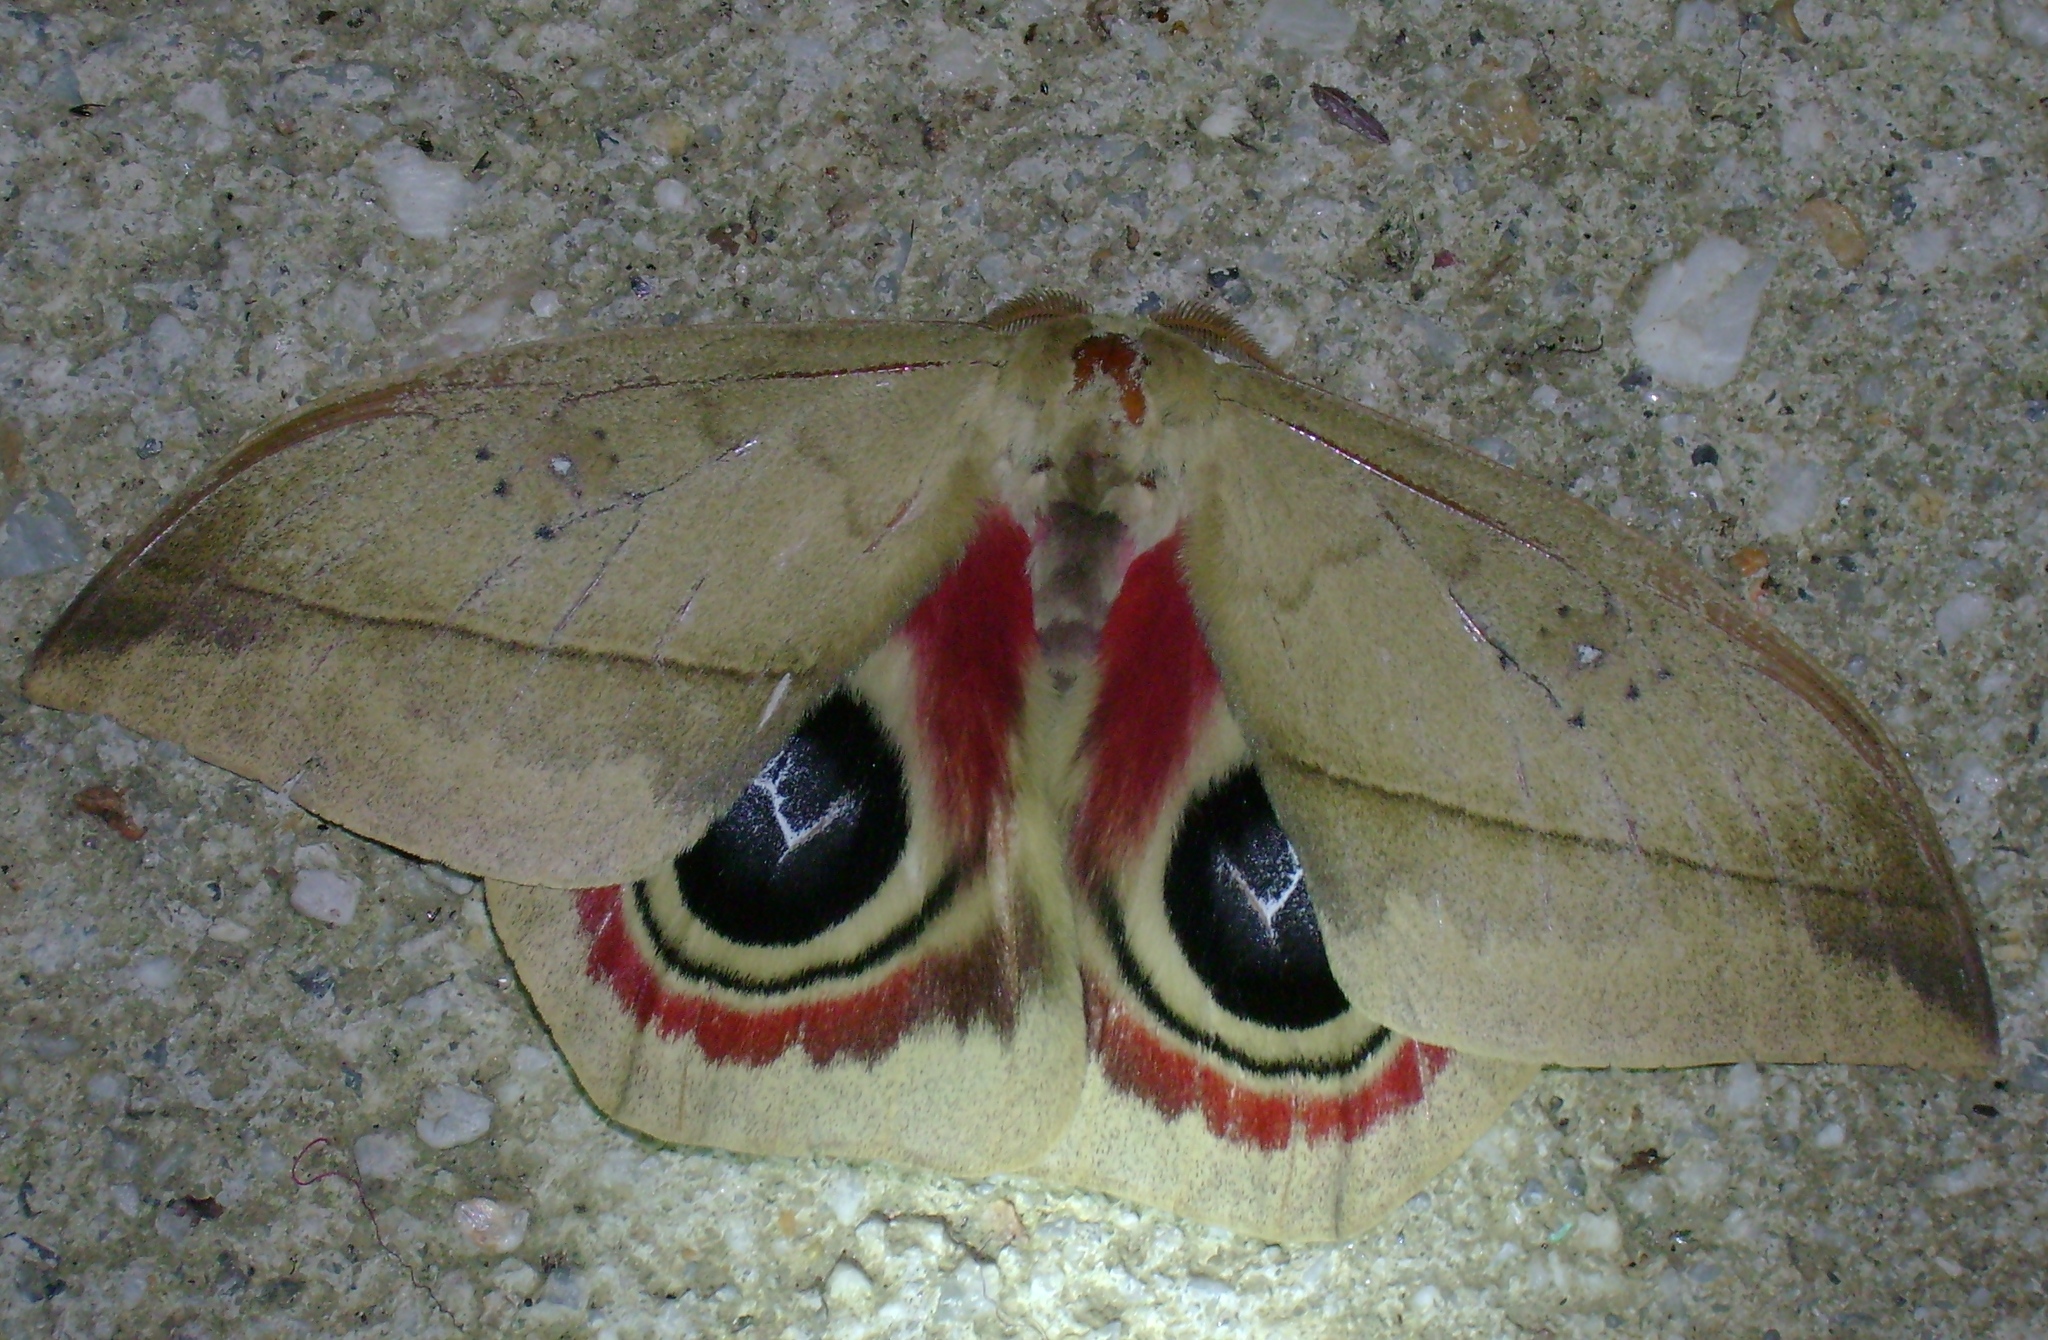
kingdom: Animalia
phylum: Arthropoda
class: Insecta
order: Lepidoptera
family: Saturniidae
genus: Automeris
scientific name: Automeris dagmarae
